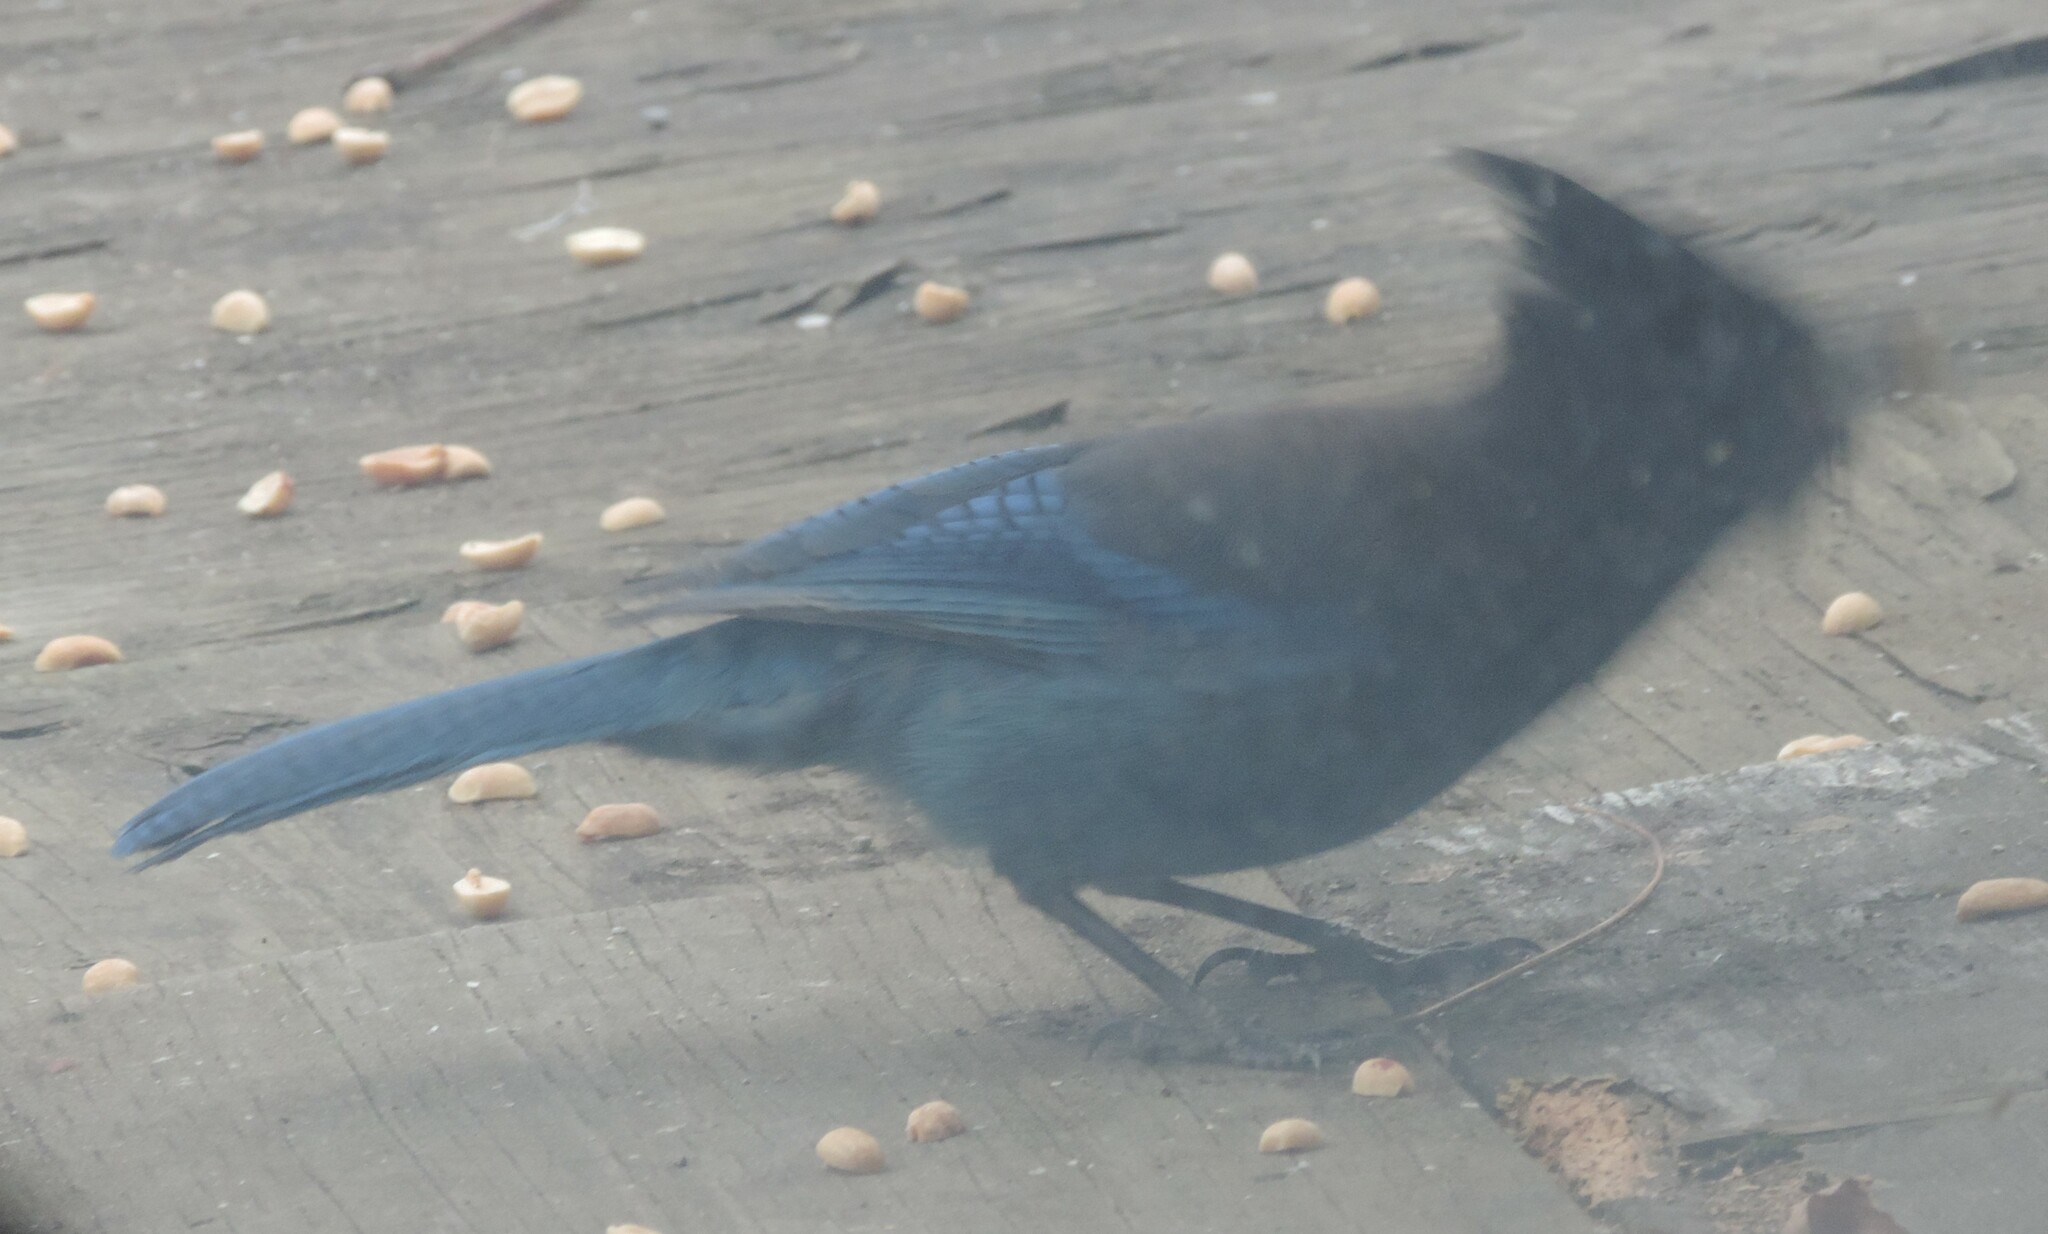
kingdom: Animalia
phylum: Chordata
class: Aves
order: Passeriformes
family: Corvidae
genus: Cyanocitta
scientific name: Cyanocitta stelleri
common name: Steller's jay
